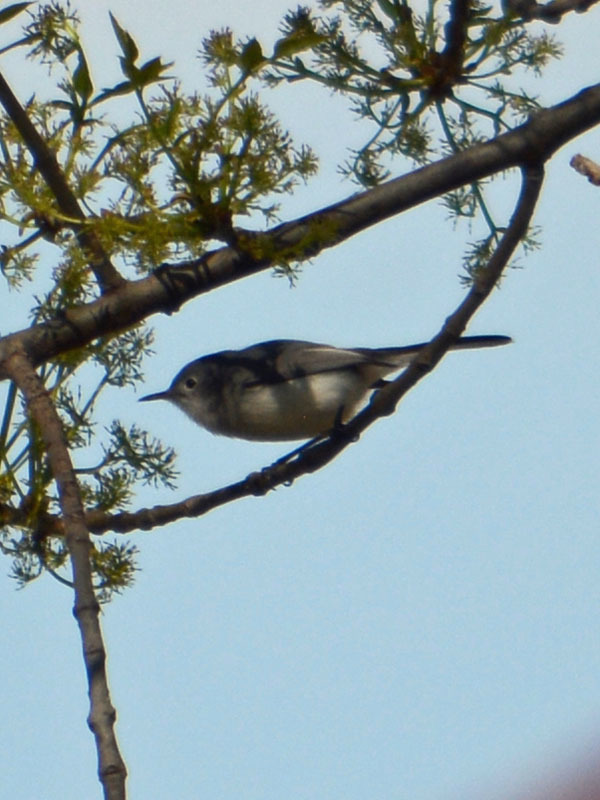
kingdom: Animalia
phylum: Chordata
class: Aves
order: Passeriformes
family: Polioptilidae
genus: Polioptila
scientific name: Polioptila caerulea
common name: Blue-gray gnatcatcher
